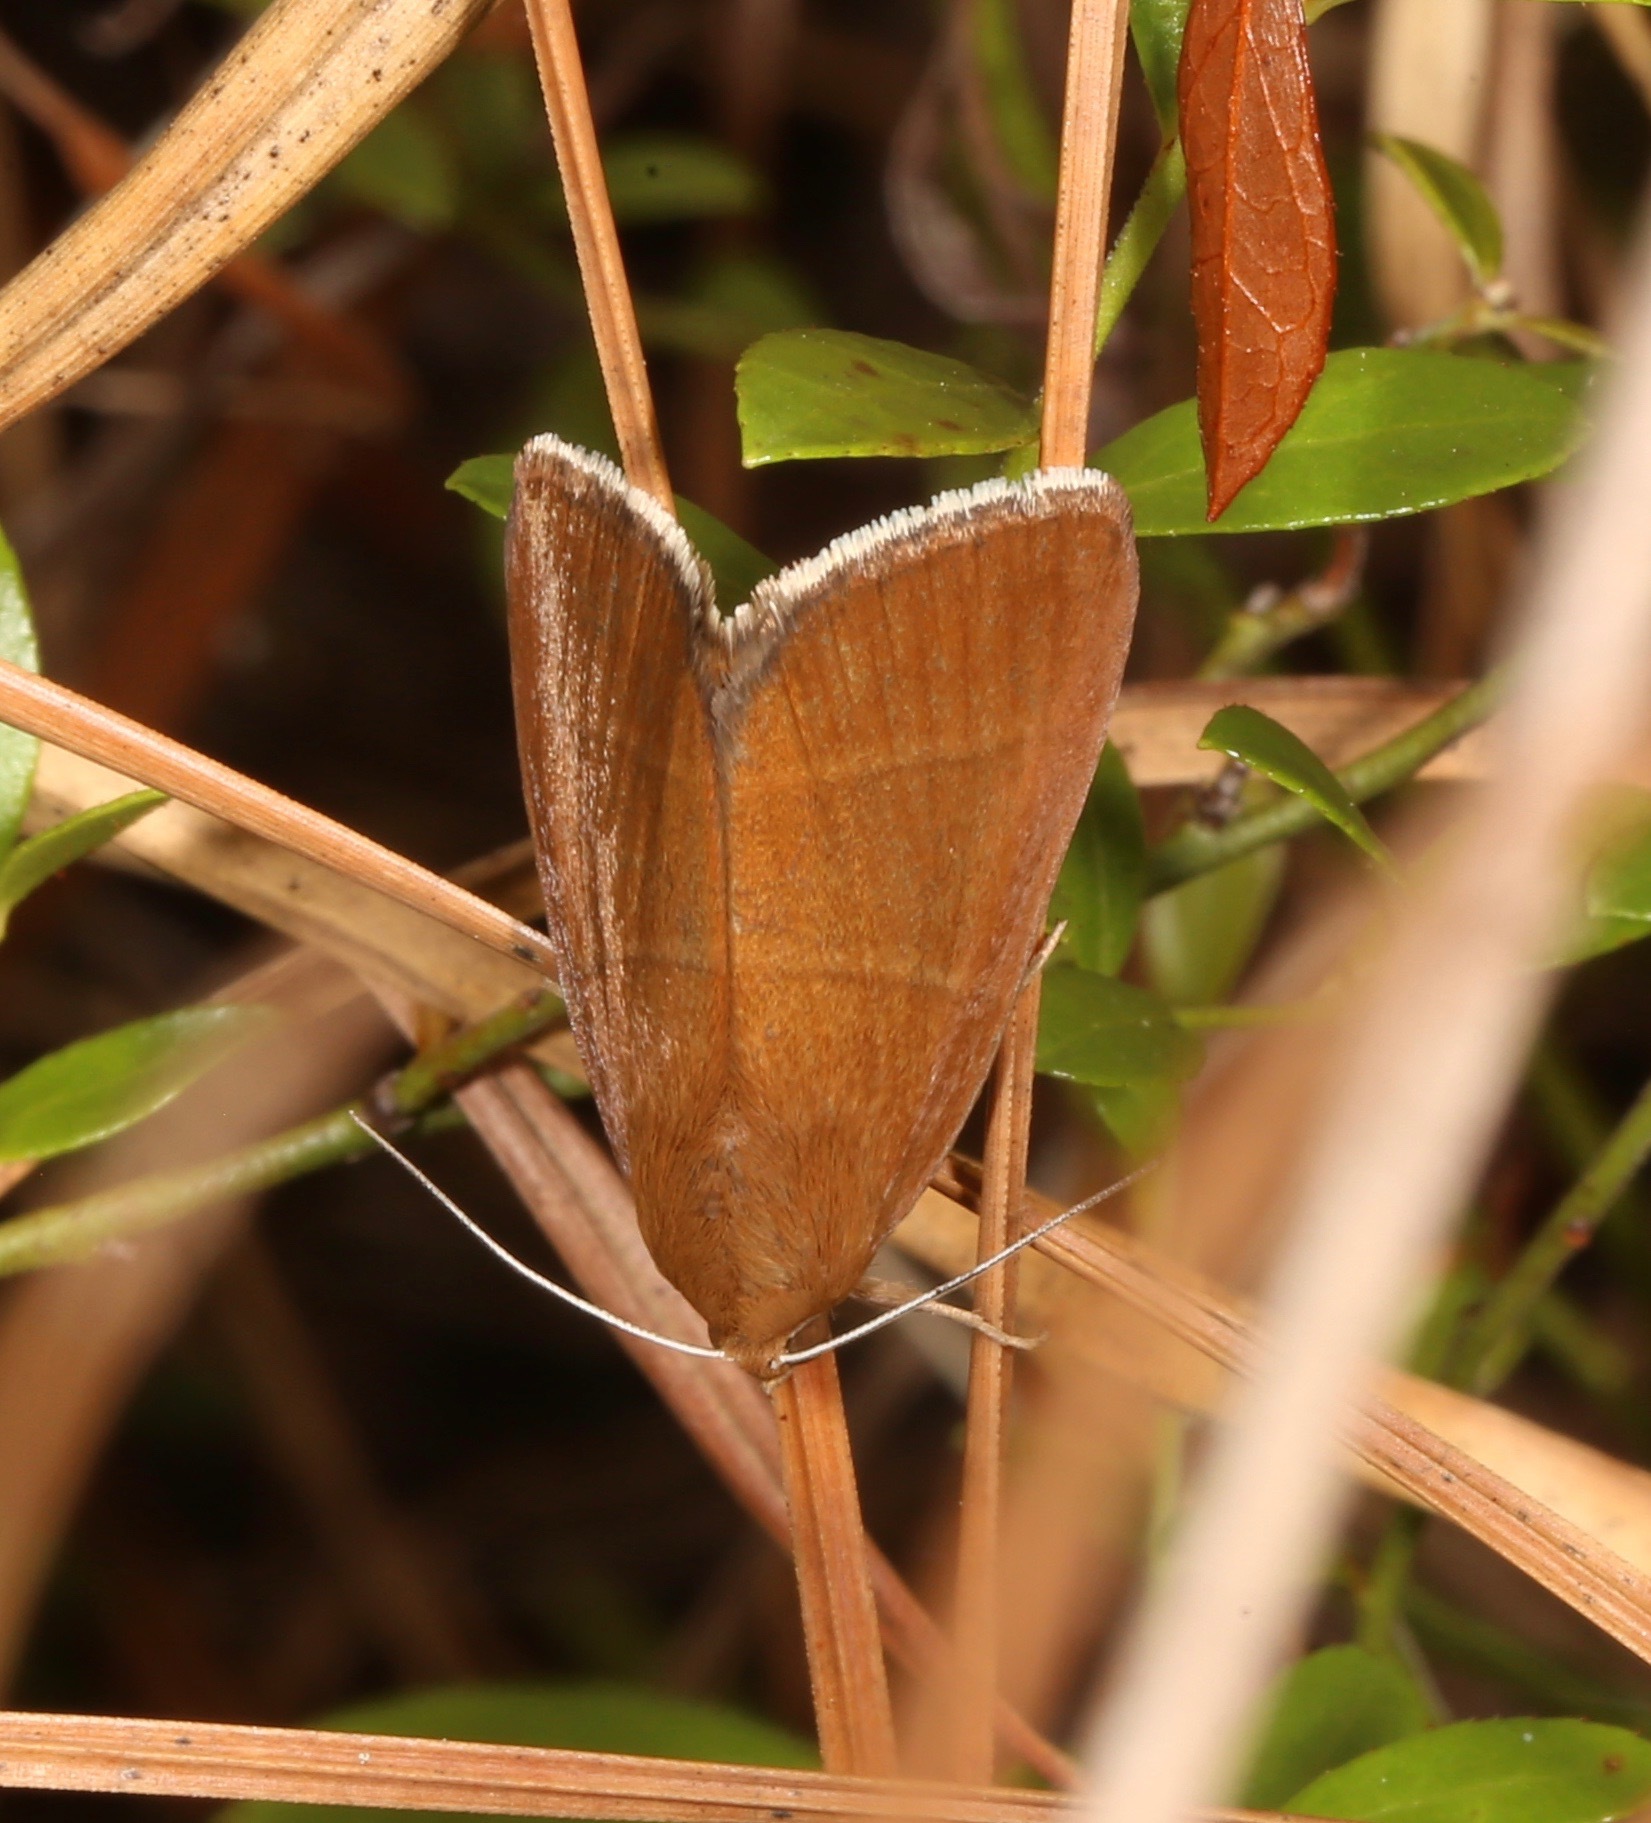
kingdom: Animalia
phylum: Arthropoda
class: Insecta
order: Lepidoptera
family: Erebidae
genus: Argyrostrotis
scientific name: Argyrostrotis quadrifilaris
